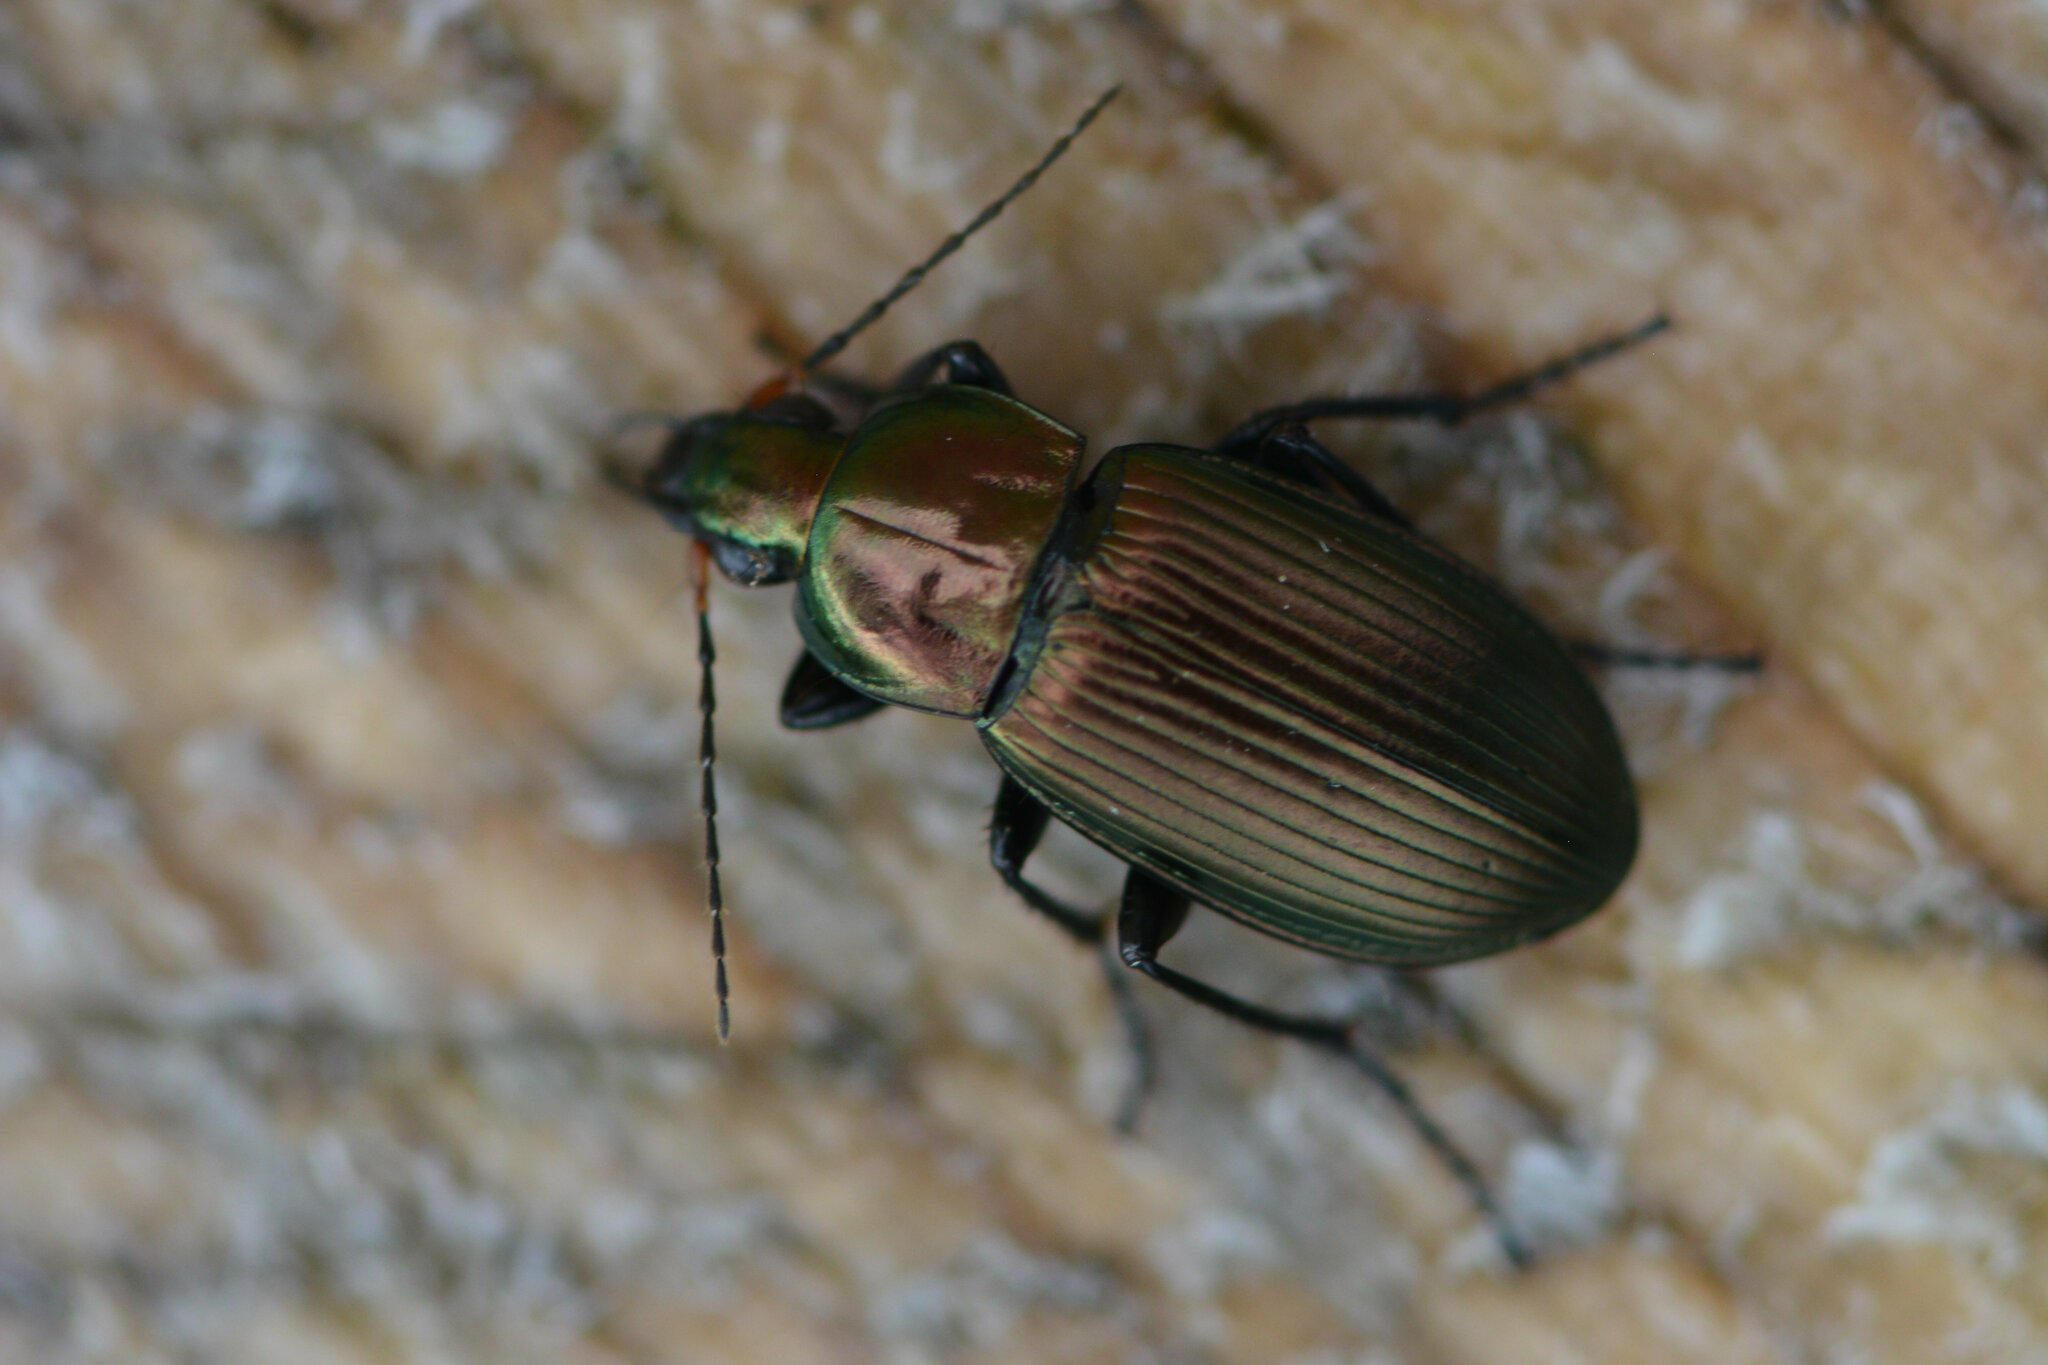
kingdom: Animalia
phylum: Arthropoda
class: Insecta
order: Coleoptera
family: Carabidae
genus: Poecilus
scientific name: Poecilus cupreus
